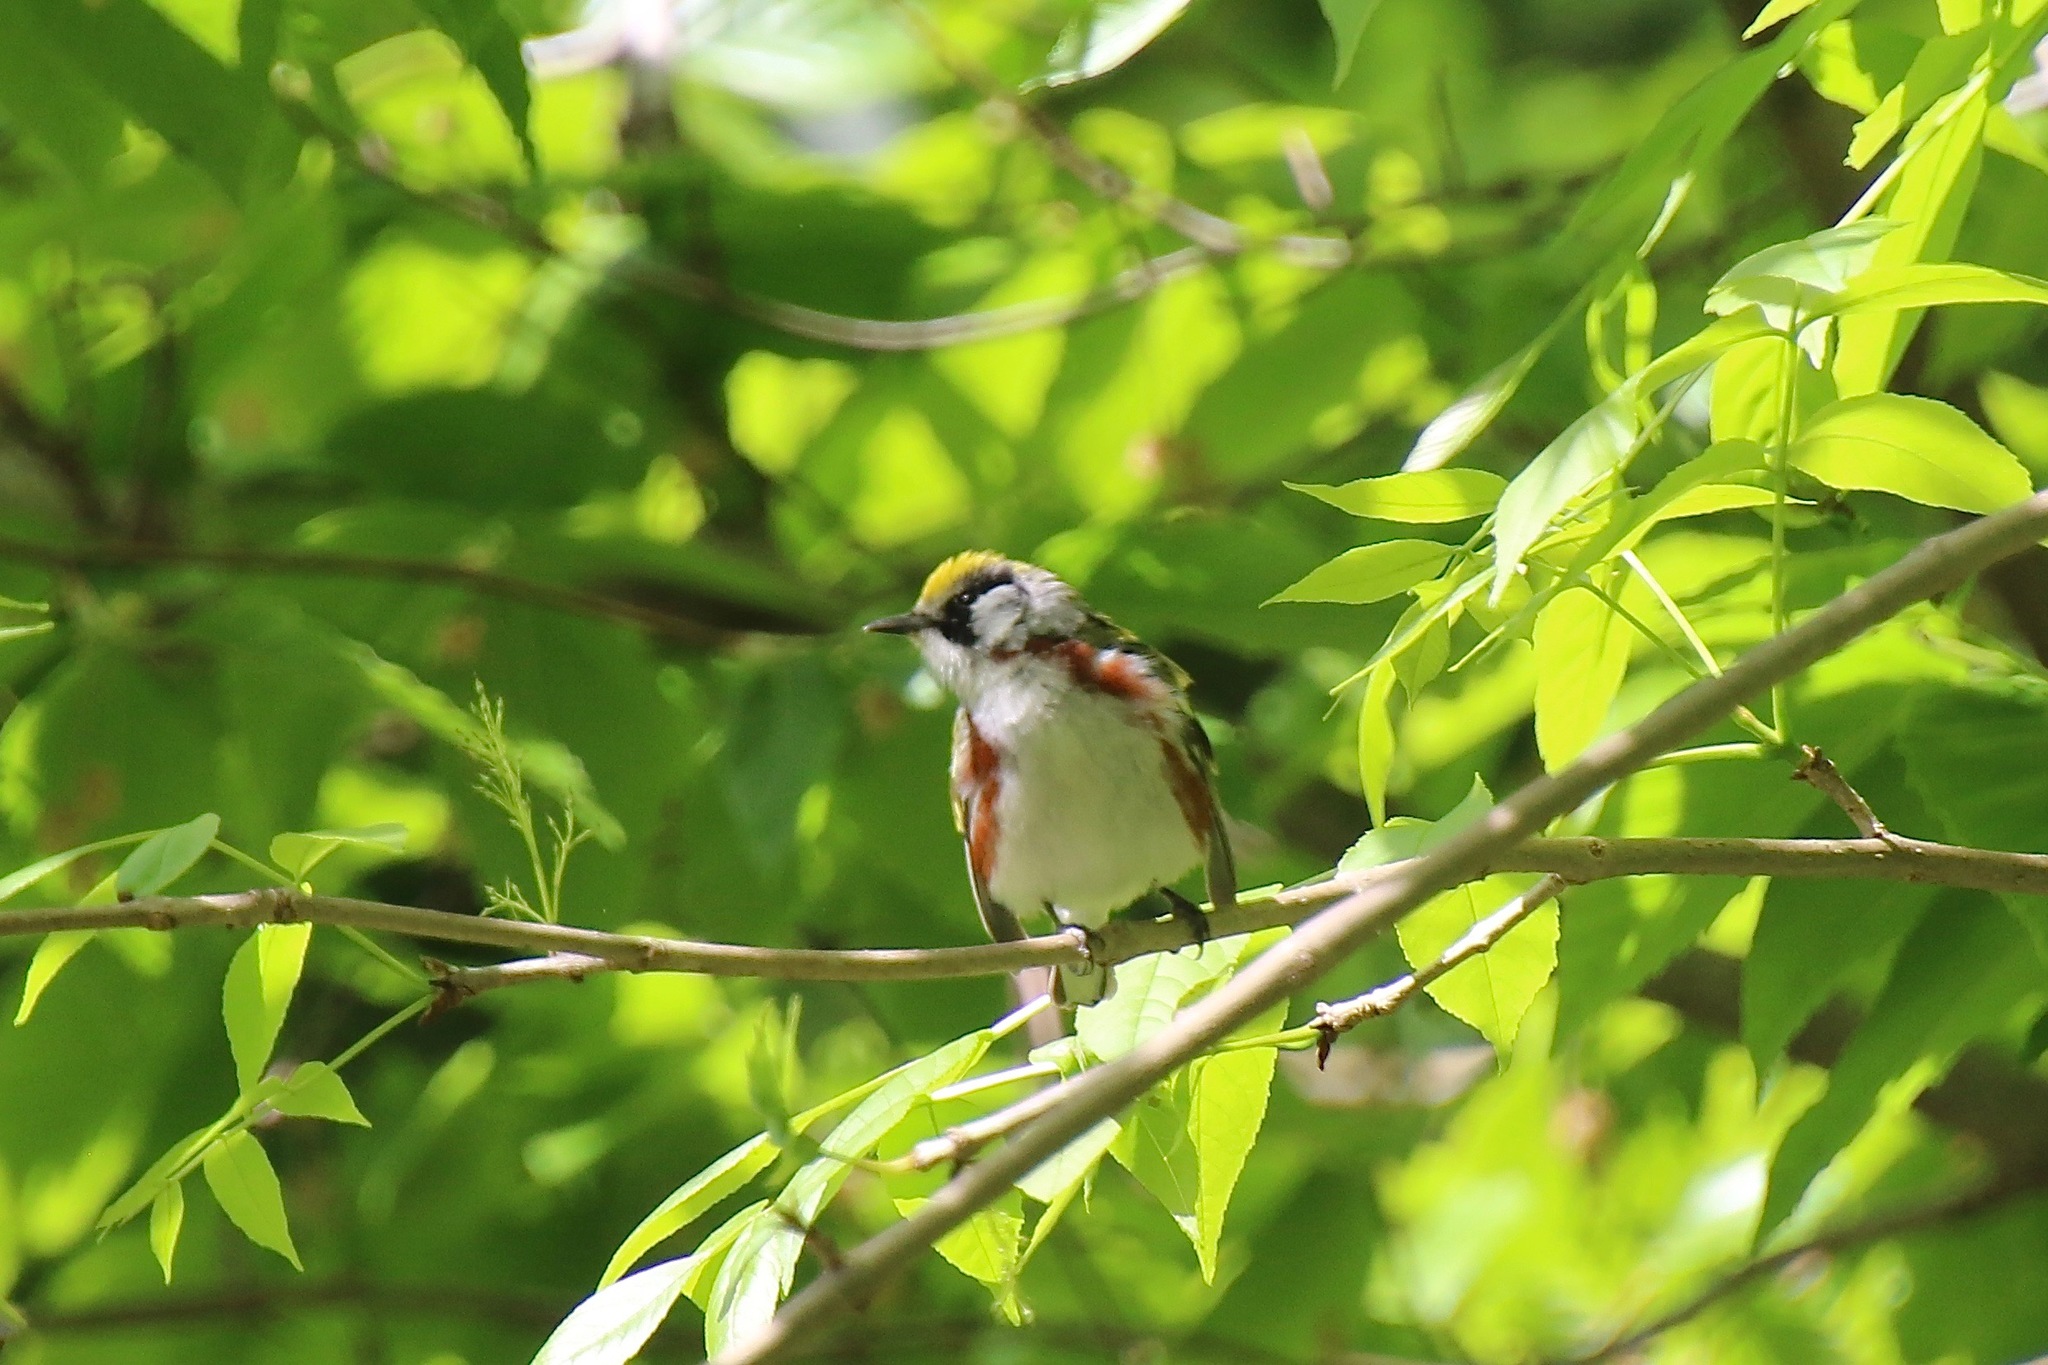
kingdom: Animalia
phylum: Chordata
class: Aves
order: Passeriformes
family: Parulidae
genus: Setophaga
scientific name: Setophaga pensylvanica
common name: Chestnut-sided warbler
